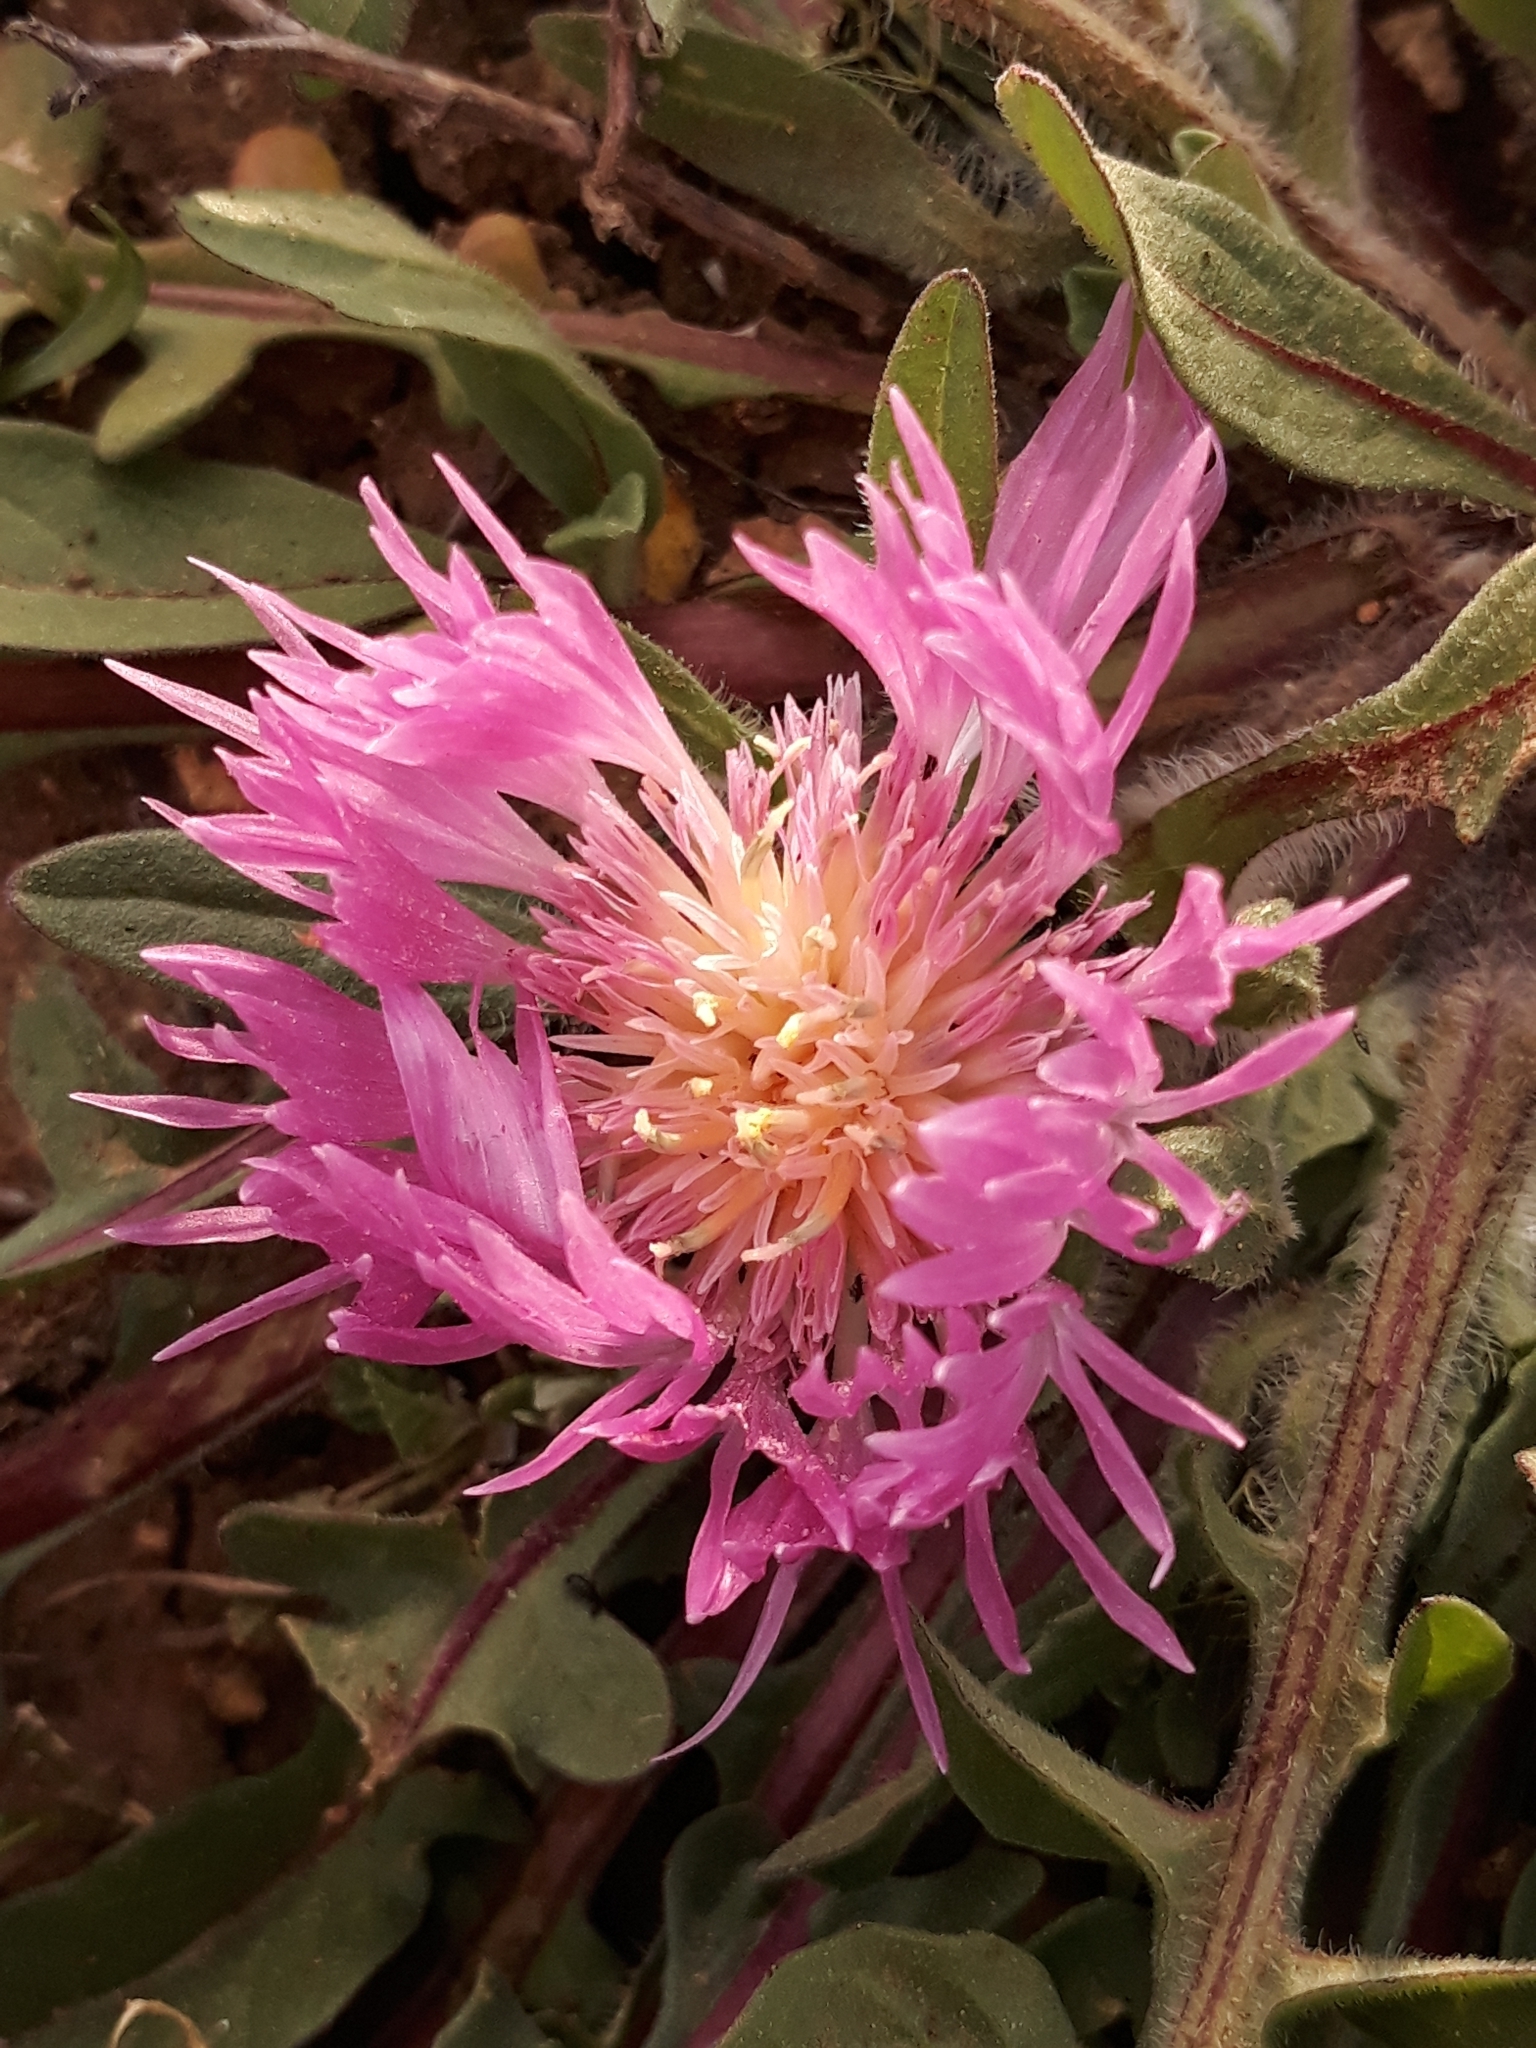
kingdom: Plantae
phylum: Tracheophyta
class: Magnoliopsida
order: Asterales
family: Asteraceae
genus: Centaurea
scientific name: Centaurea pullata
